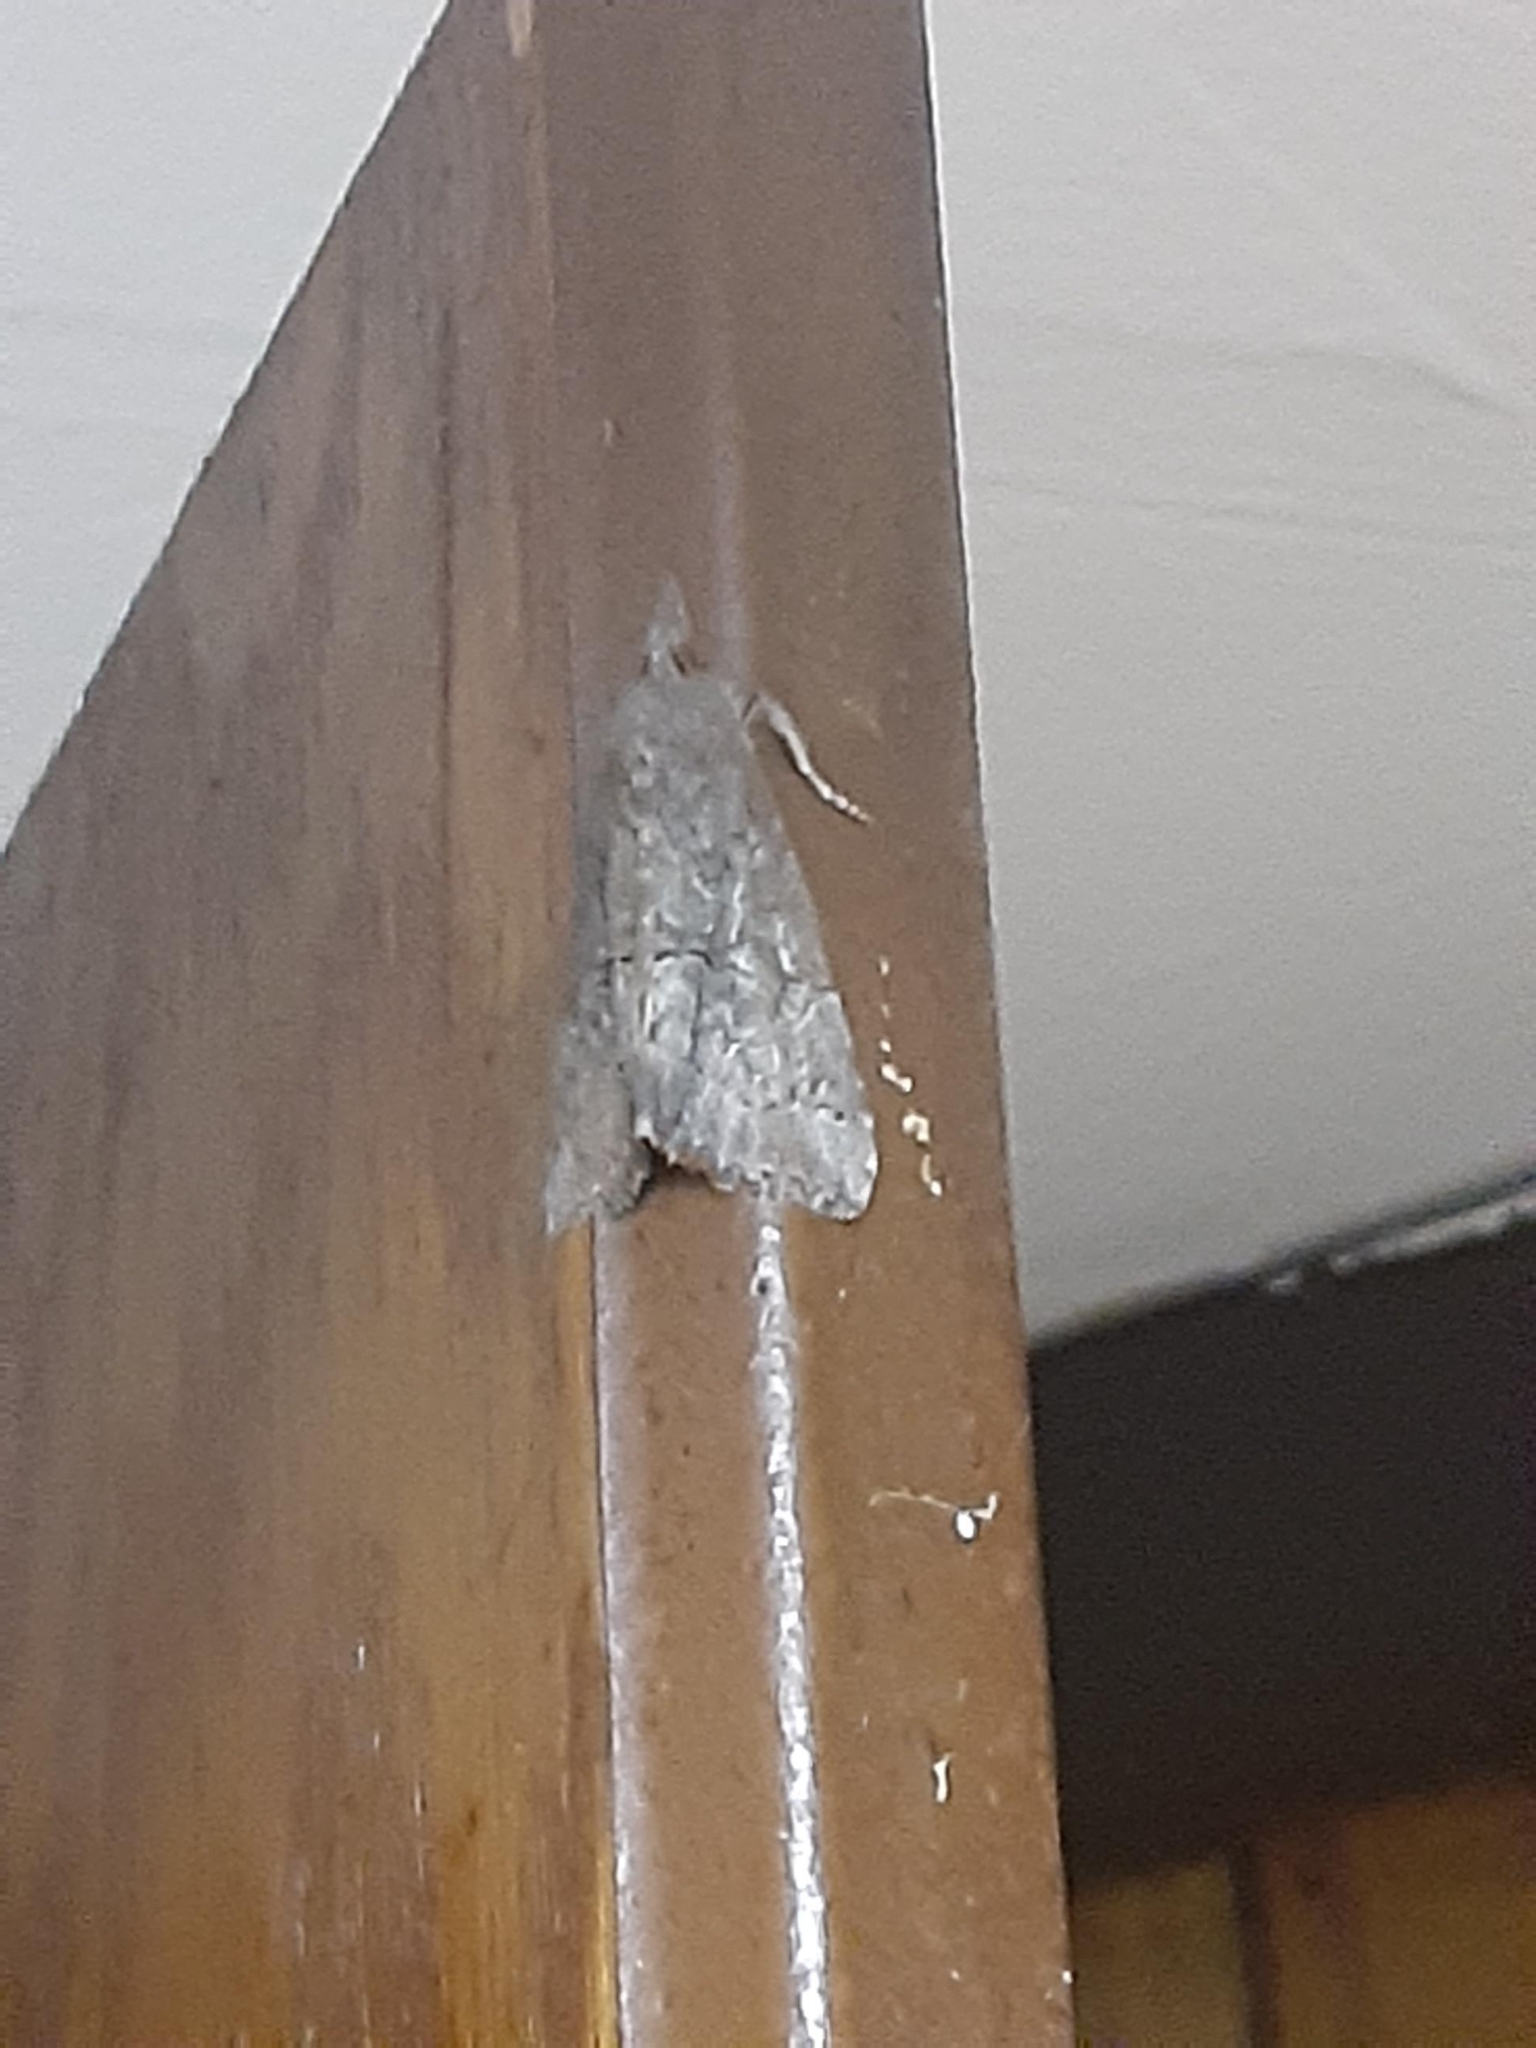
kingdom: Animalia
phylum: Arthropoda
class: Insecta
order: Lepidoptera
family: Erebidae
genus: Hypena
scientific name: Hypena scabra
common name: Green cloverworm
